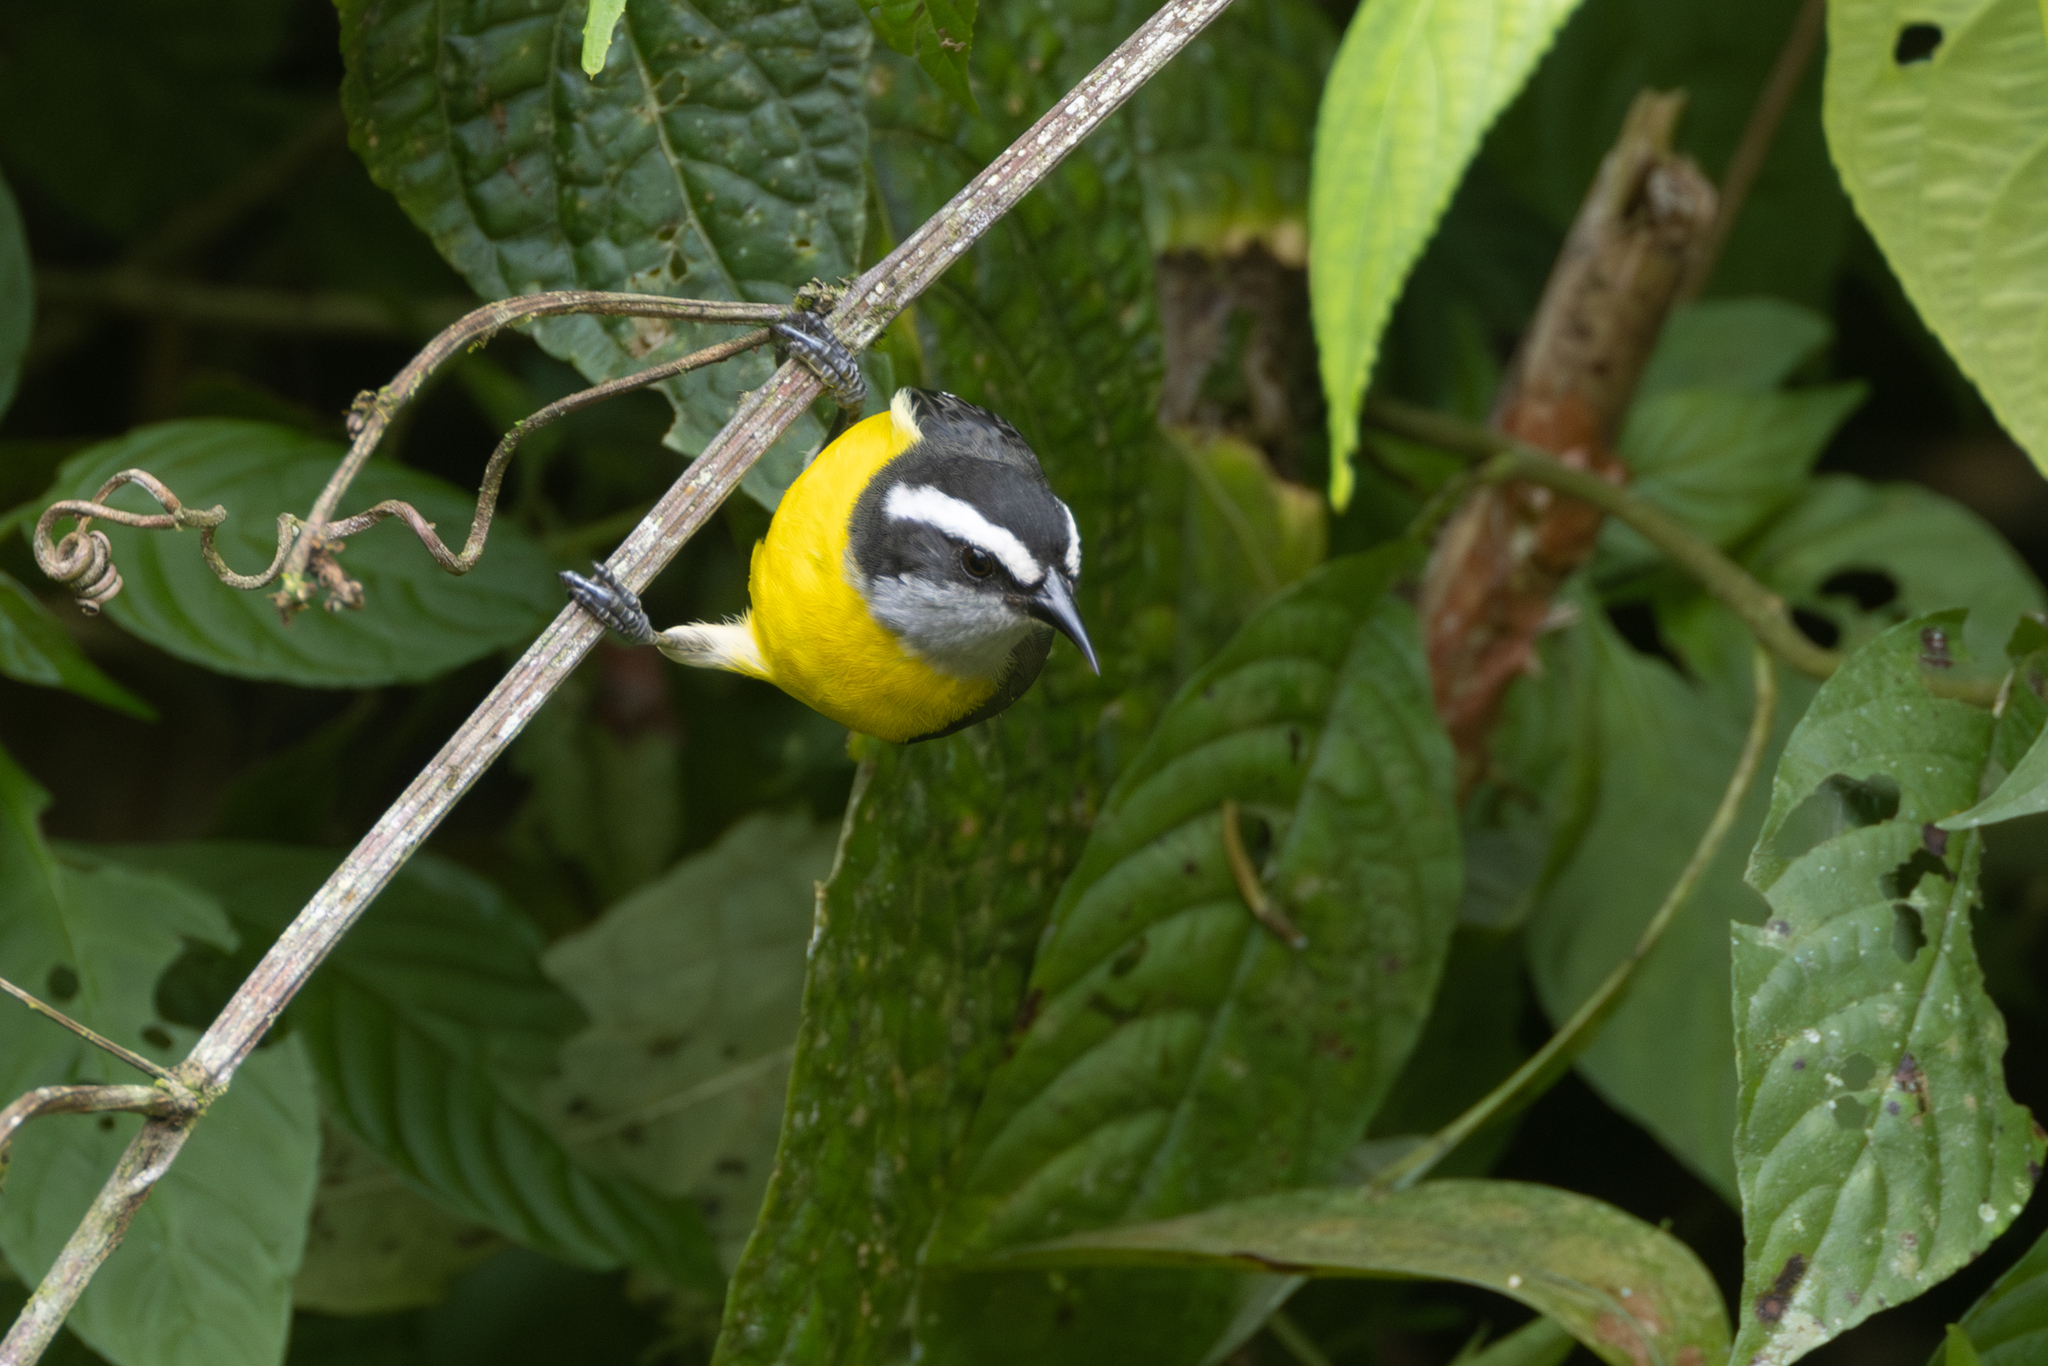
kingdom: Animalia
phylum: Chordata
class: Aves
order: Passeriformes
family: Thraupidae
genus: Coereba
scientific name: Coereba flaveola
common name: Bananaquit
